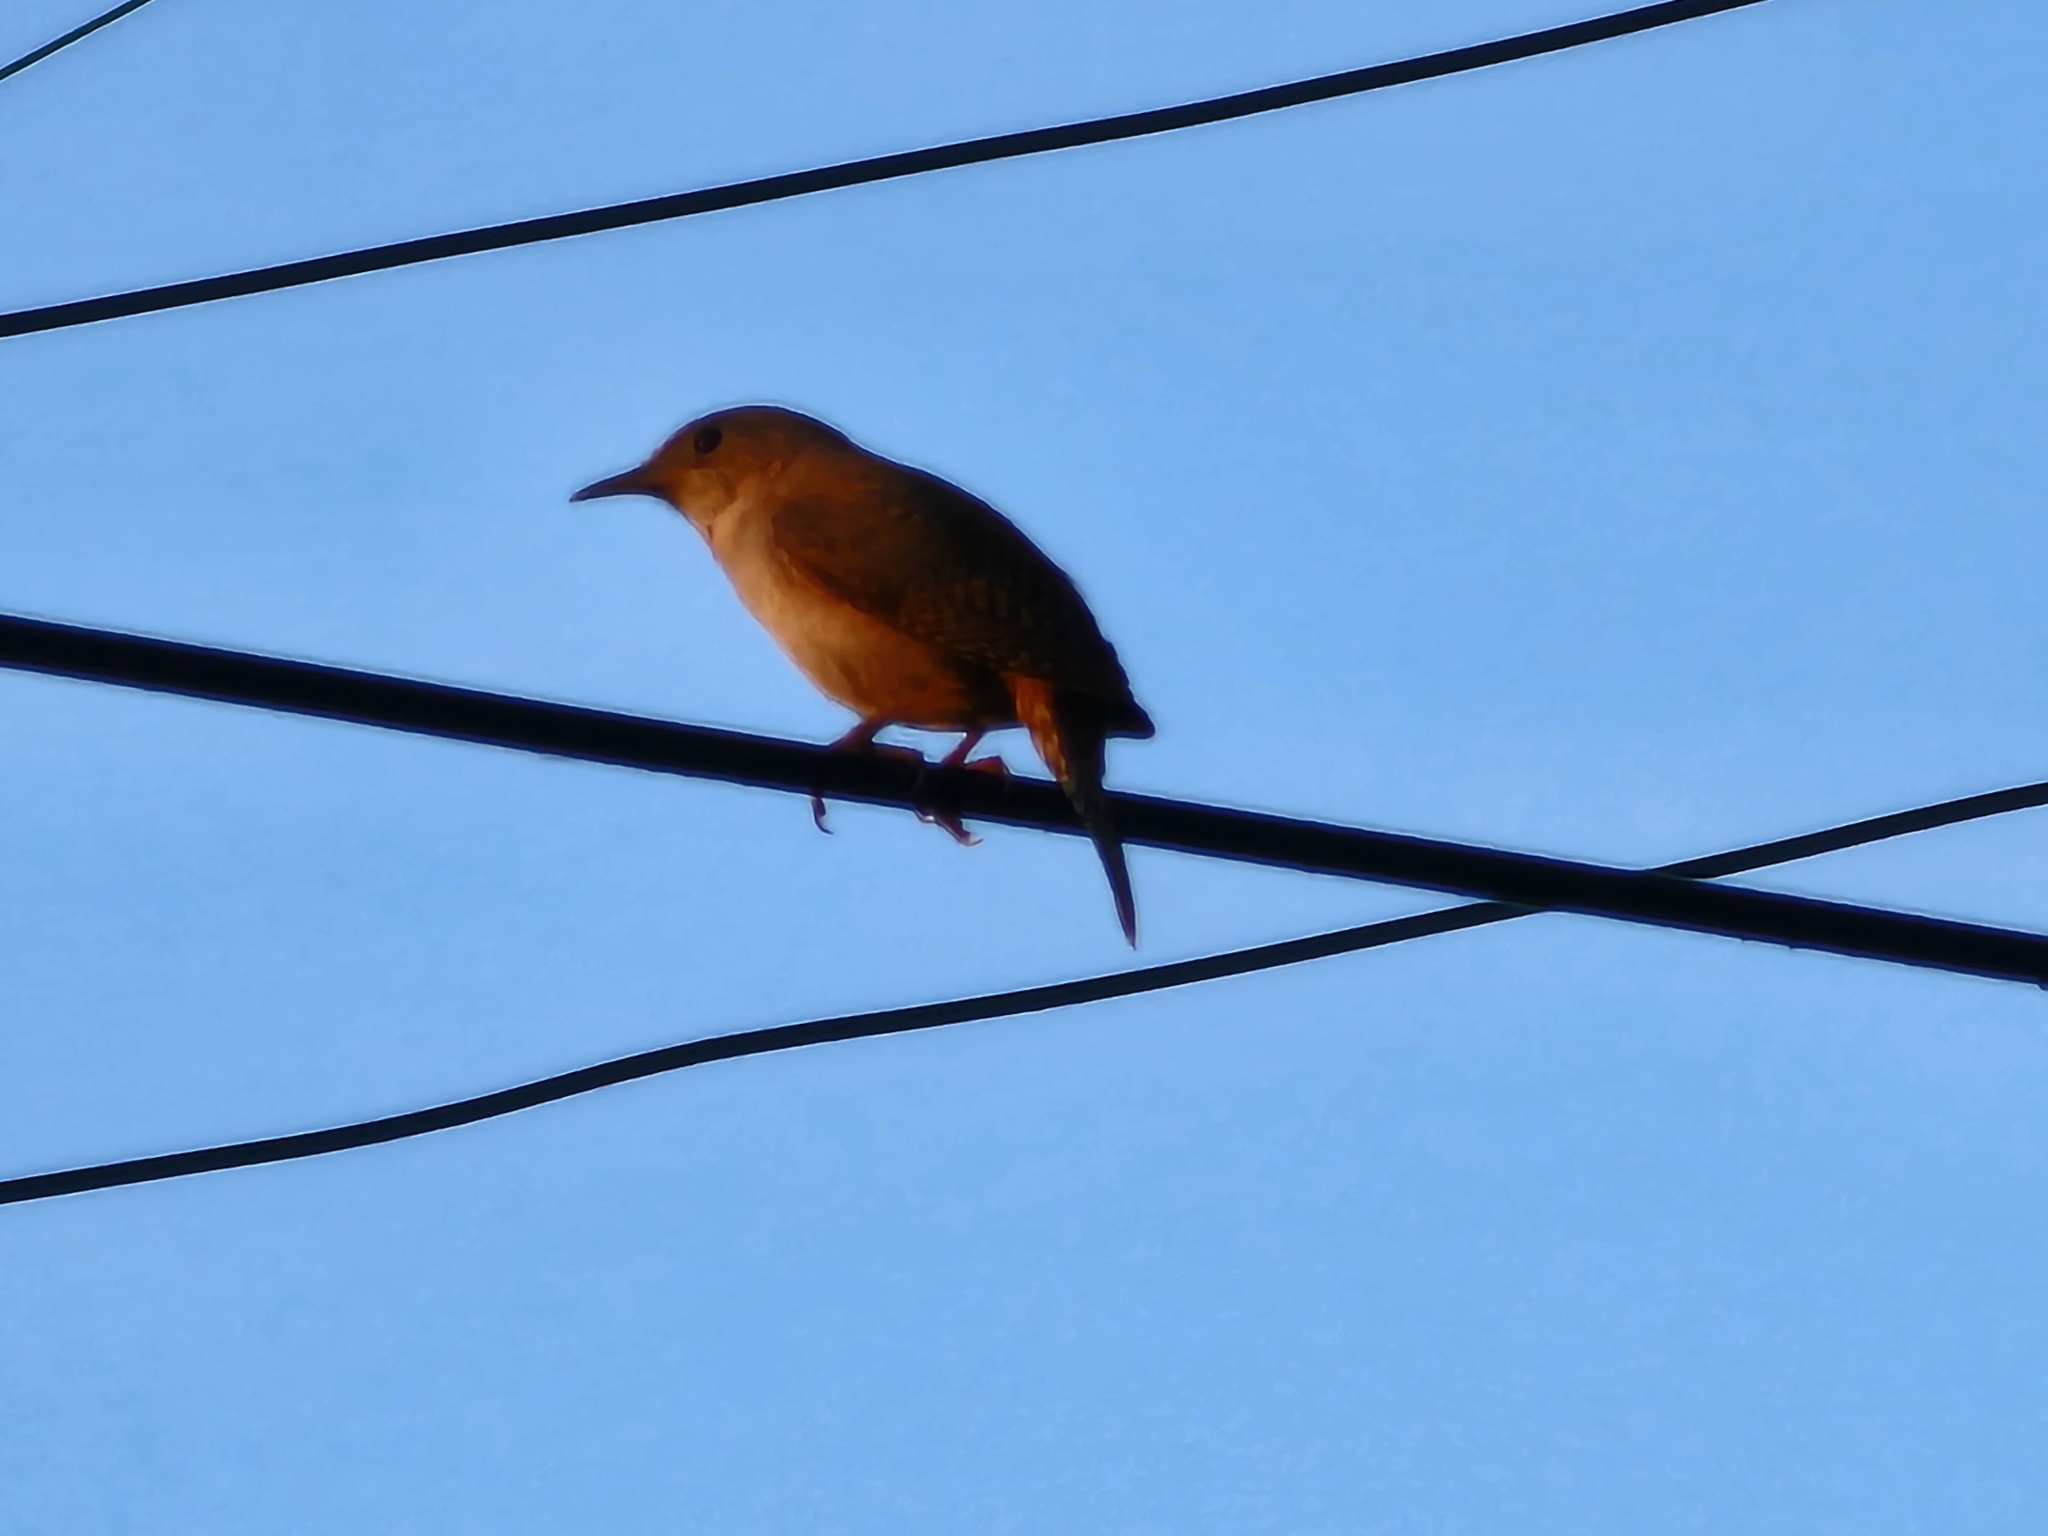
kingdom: Animalia
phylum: Chordata
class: Aves
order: Passeriformes
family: Troglodytidae
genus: Troglodytes
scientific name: Troglodytes aedon
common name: House wren
